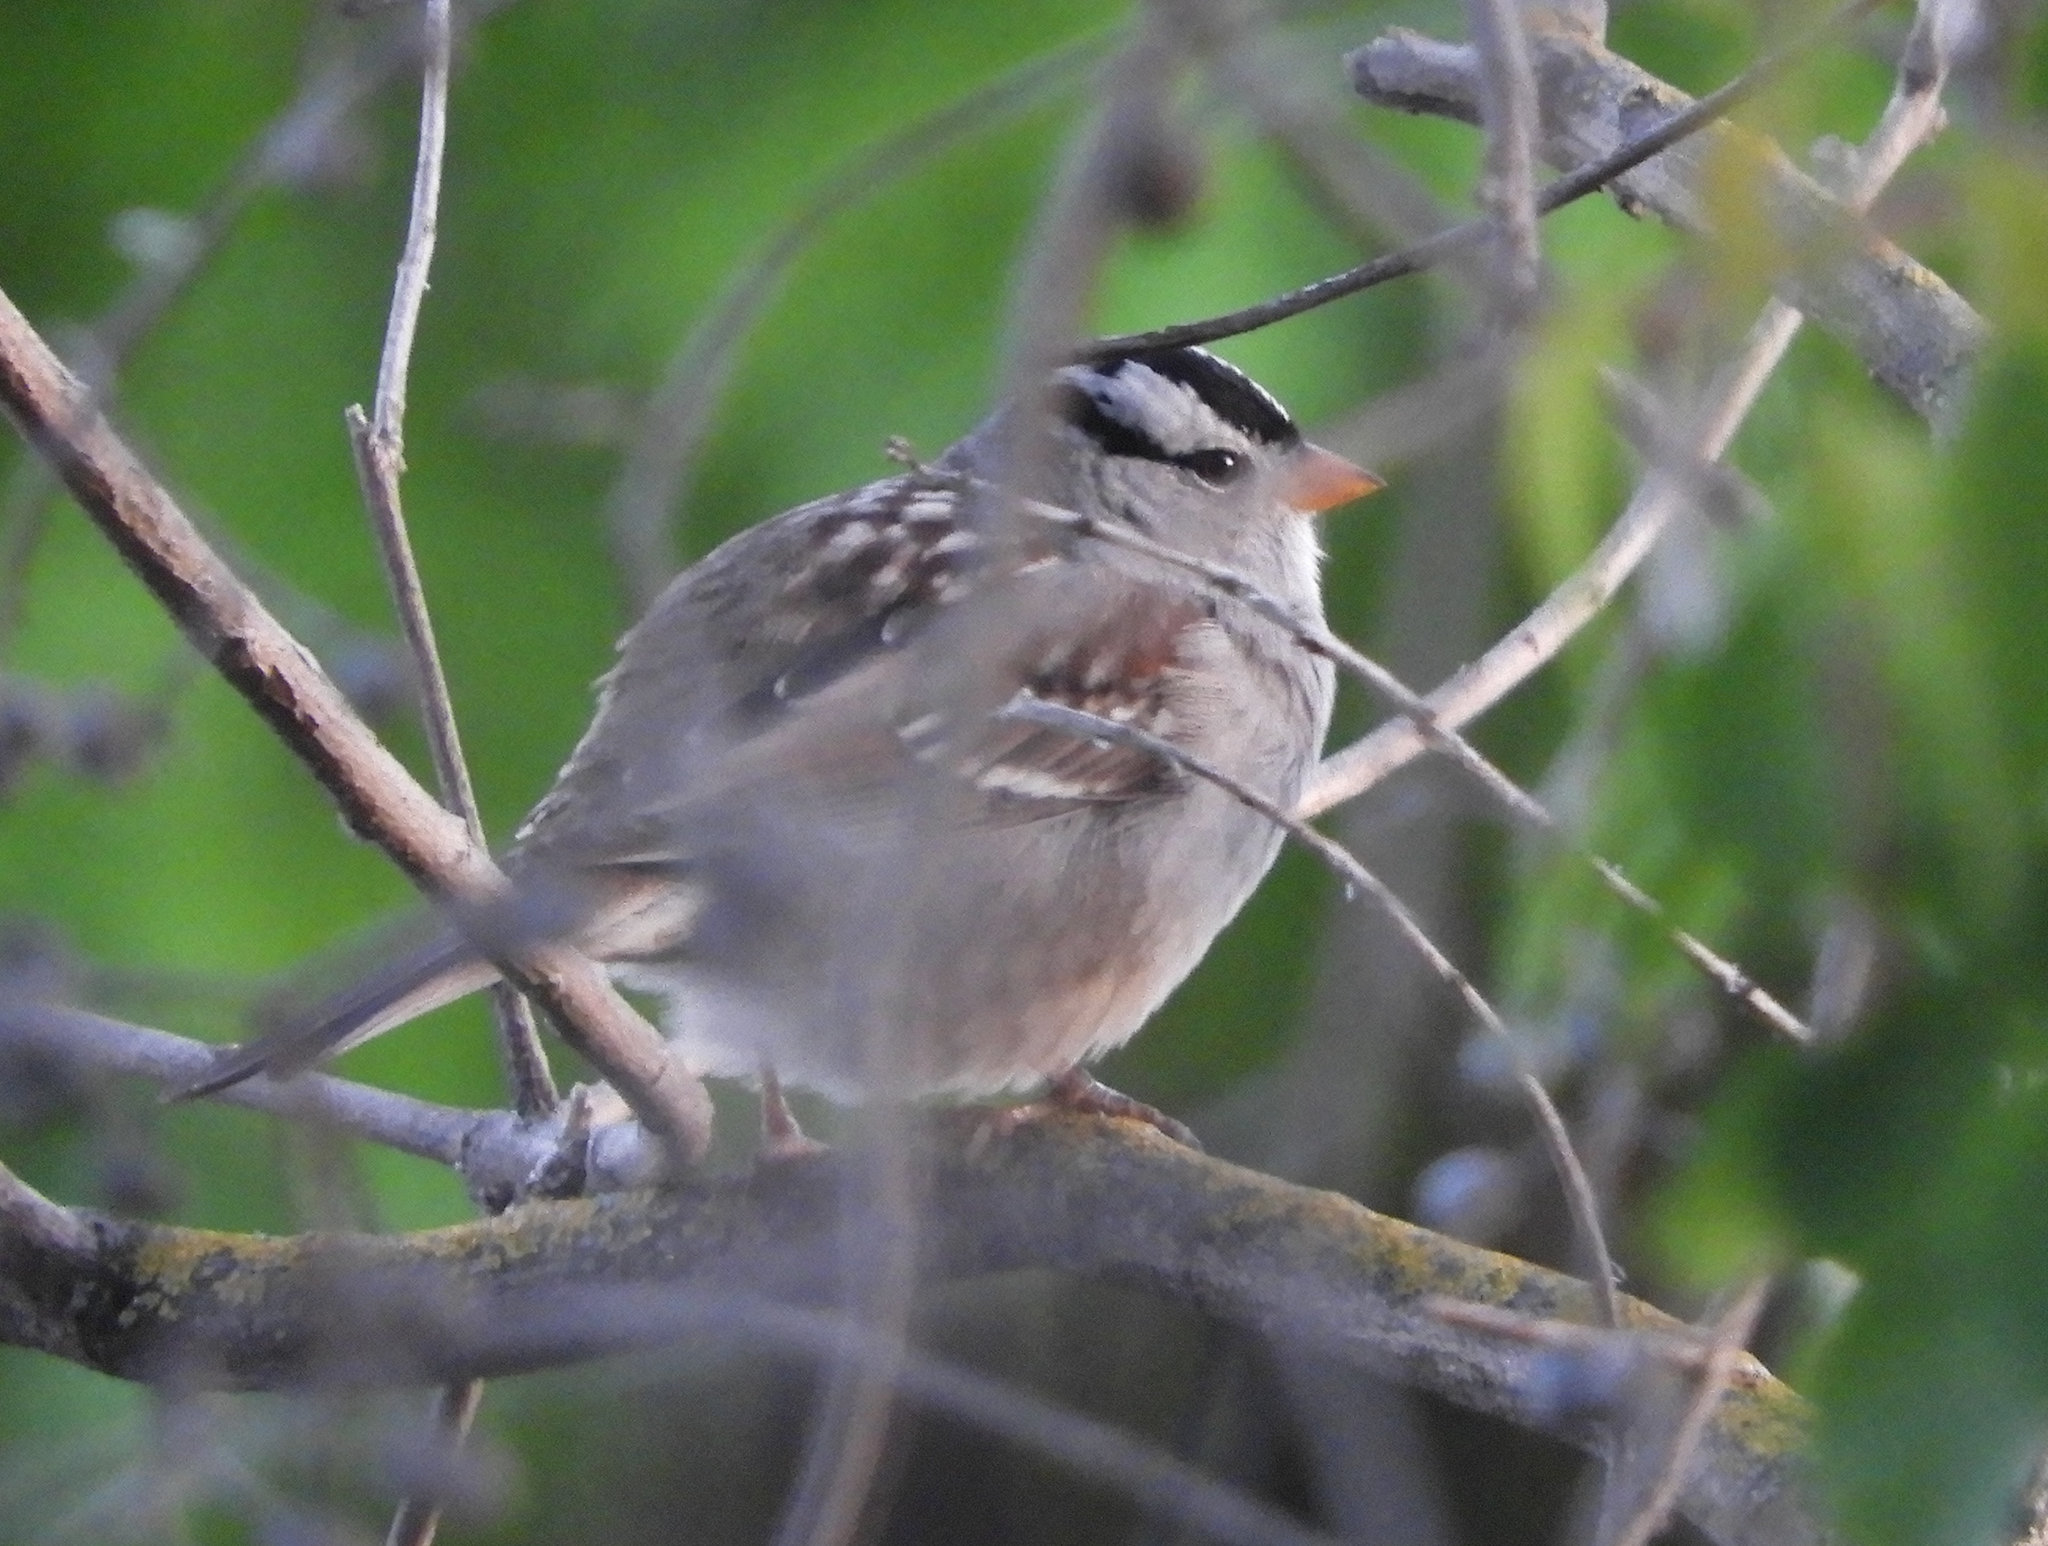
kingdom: Animalia
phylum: Chordata
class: Aves
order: Passeriformes
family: Passerellidae
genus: Zonotrichia
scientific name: Zonotrichia leucophrys
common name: White-crowned sparrow
